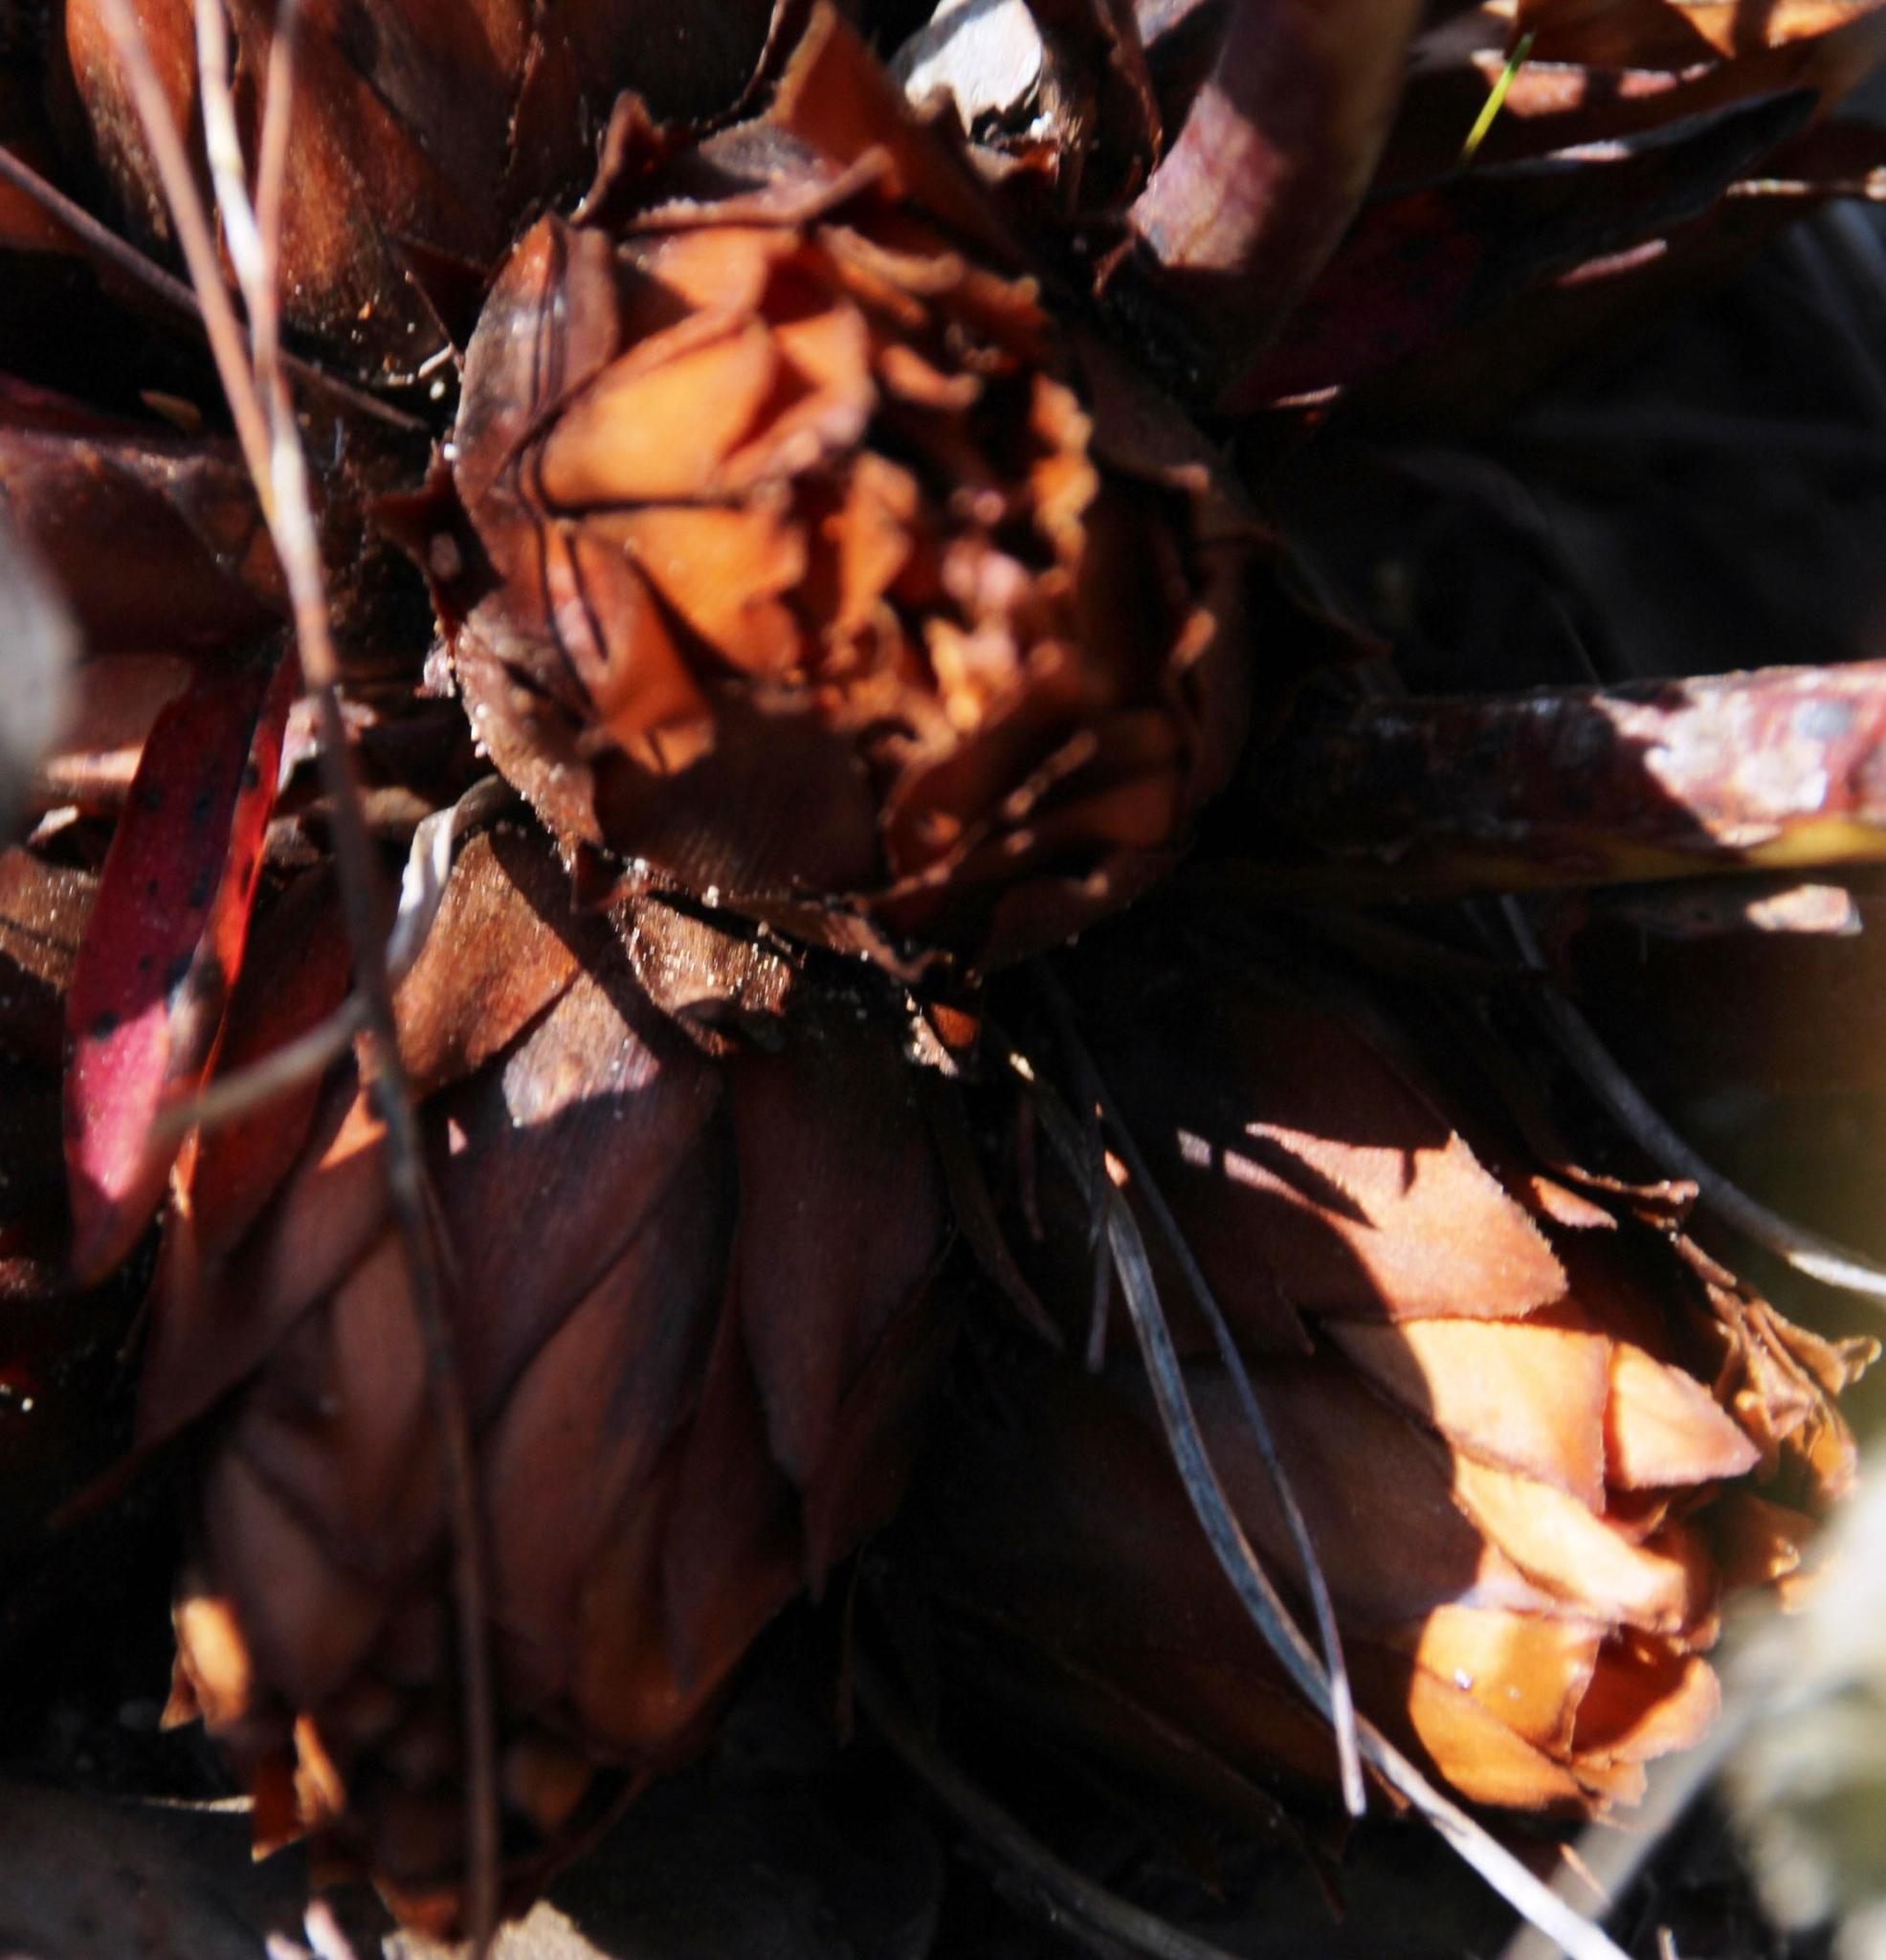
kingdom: Plantae
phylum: Tracheophyta
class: Magnoliopsida
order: Proteales
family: Proteaceae
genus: Protea
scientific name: Protea cordata
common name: Heart-leaf sugarbush
